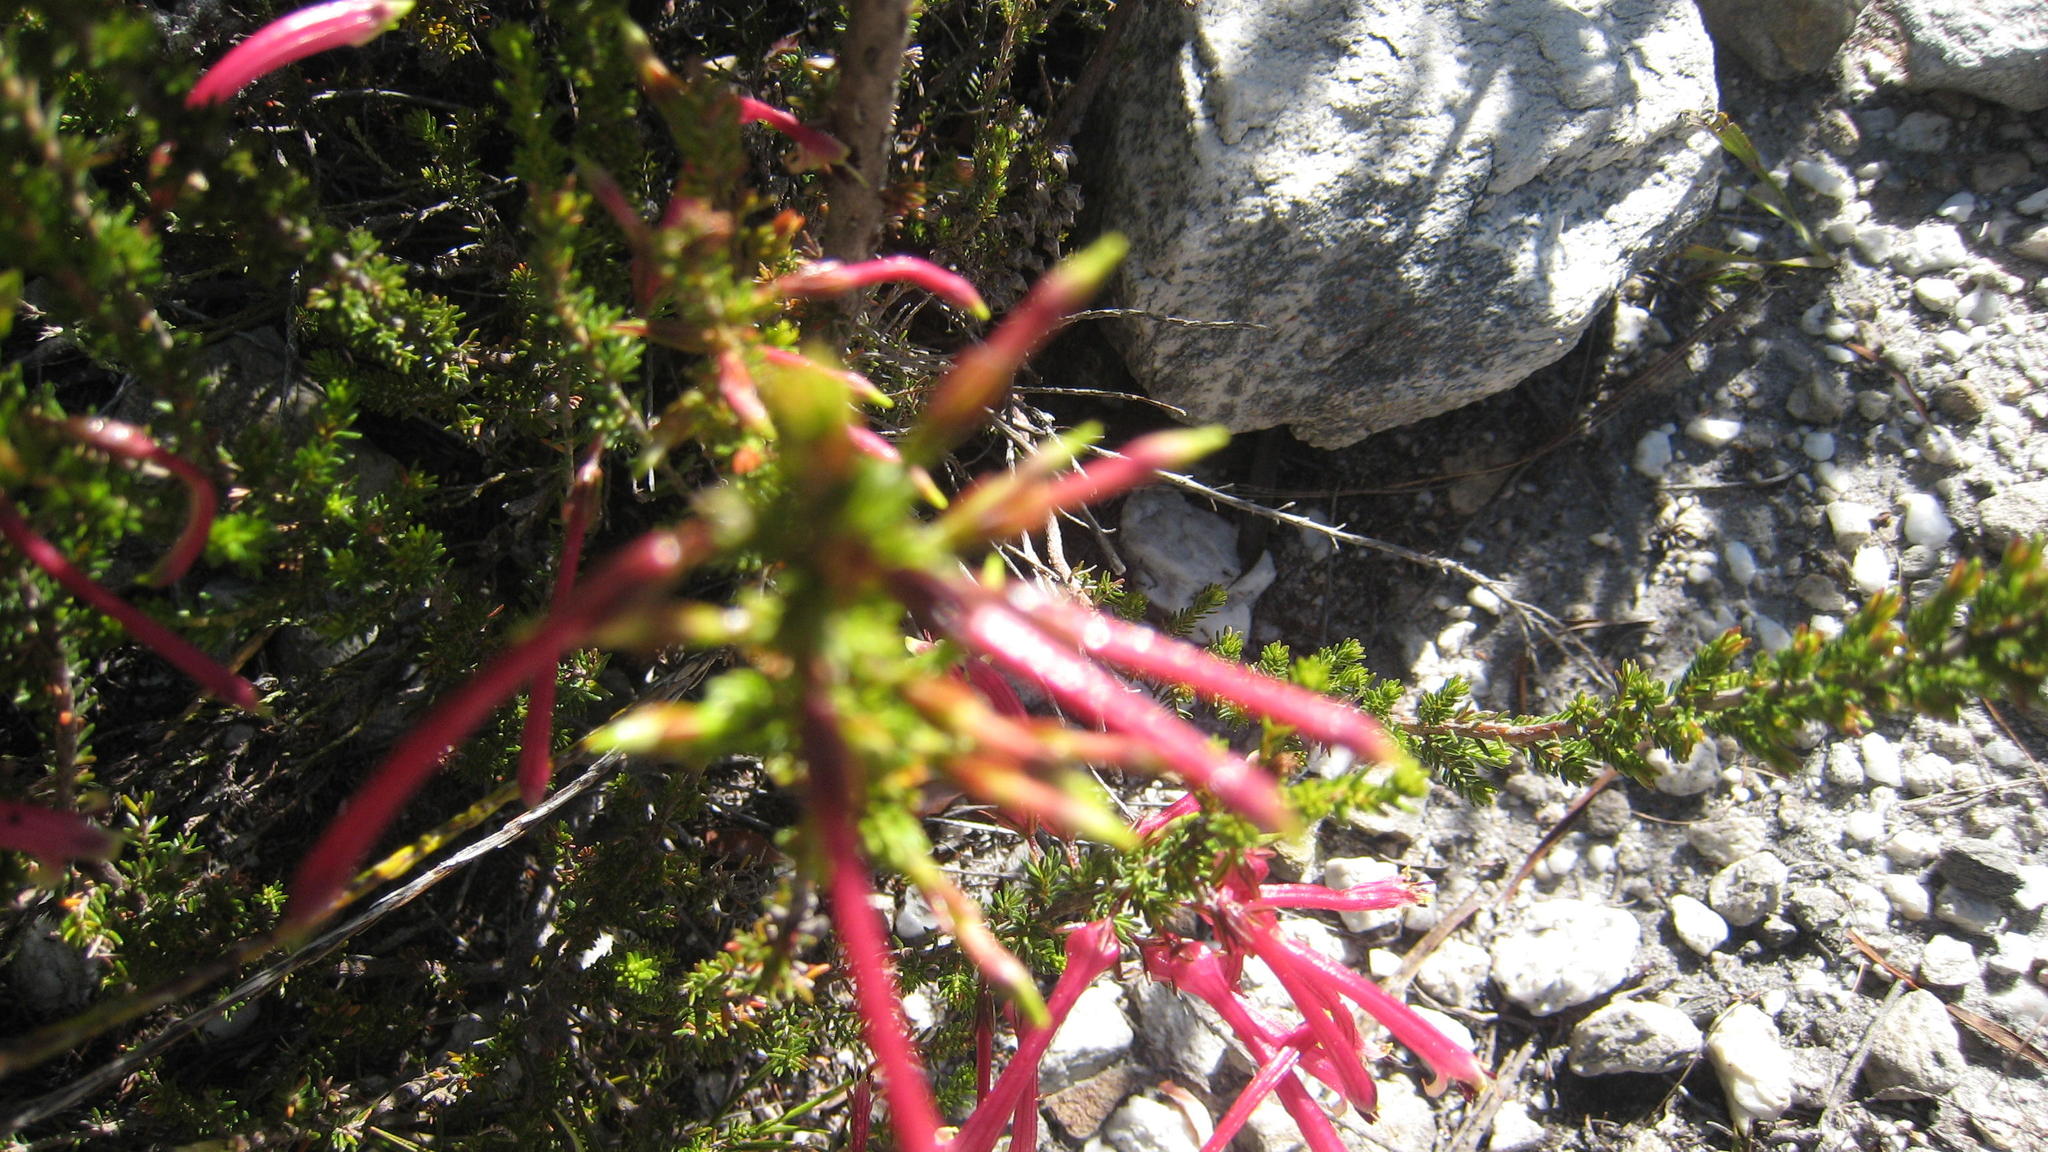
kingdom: Plantae
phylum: Tracheophyta
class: Magnoliopsida
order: Ericales
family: Ericaceae
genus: Erica
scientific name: Erica densifolia
